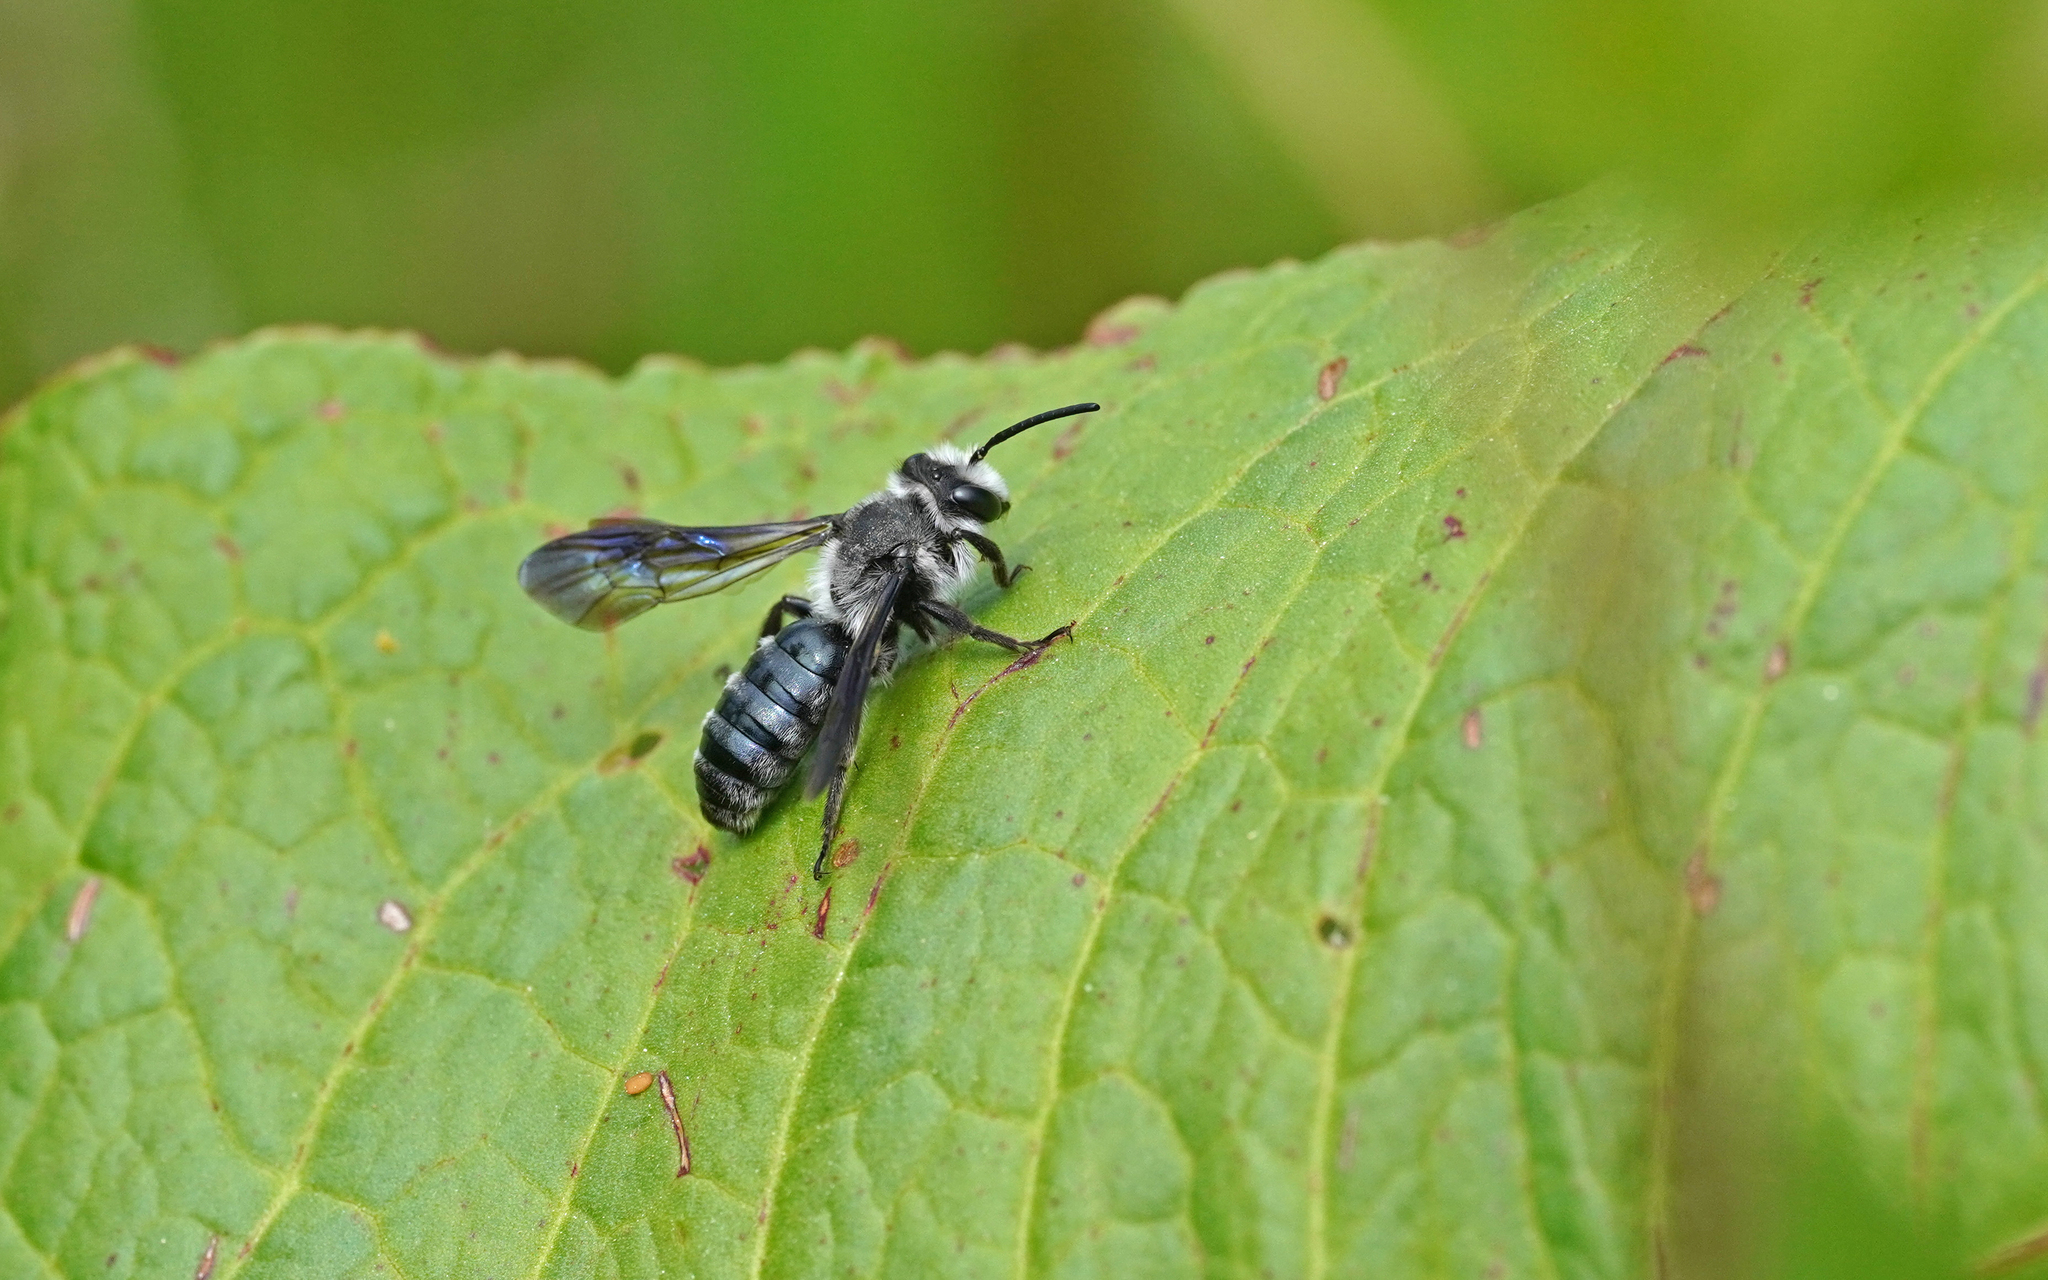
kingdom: Animalia
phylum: Arthropoda
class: Insecta
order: Hymenoptera
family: Andrenidae
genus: Andrena
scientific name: Andrena agilissima
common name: Violet-winged mining bee
